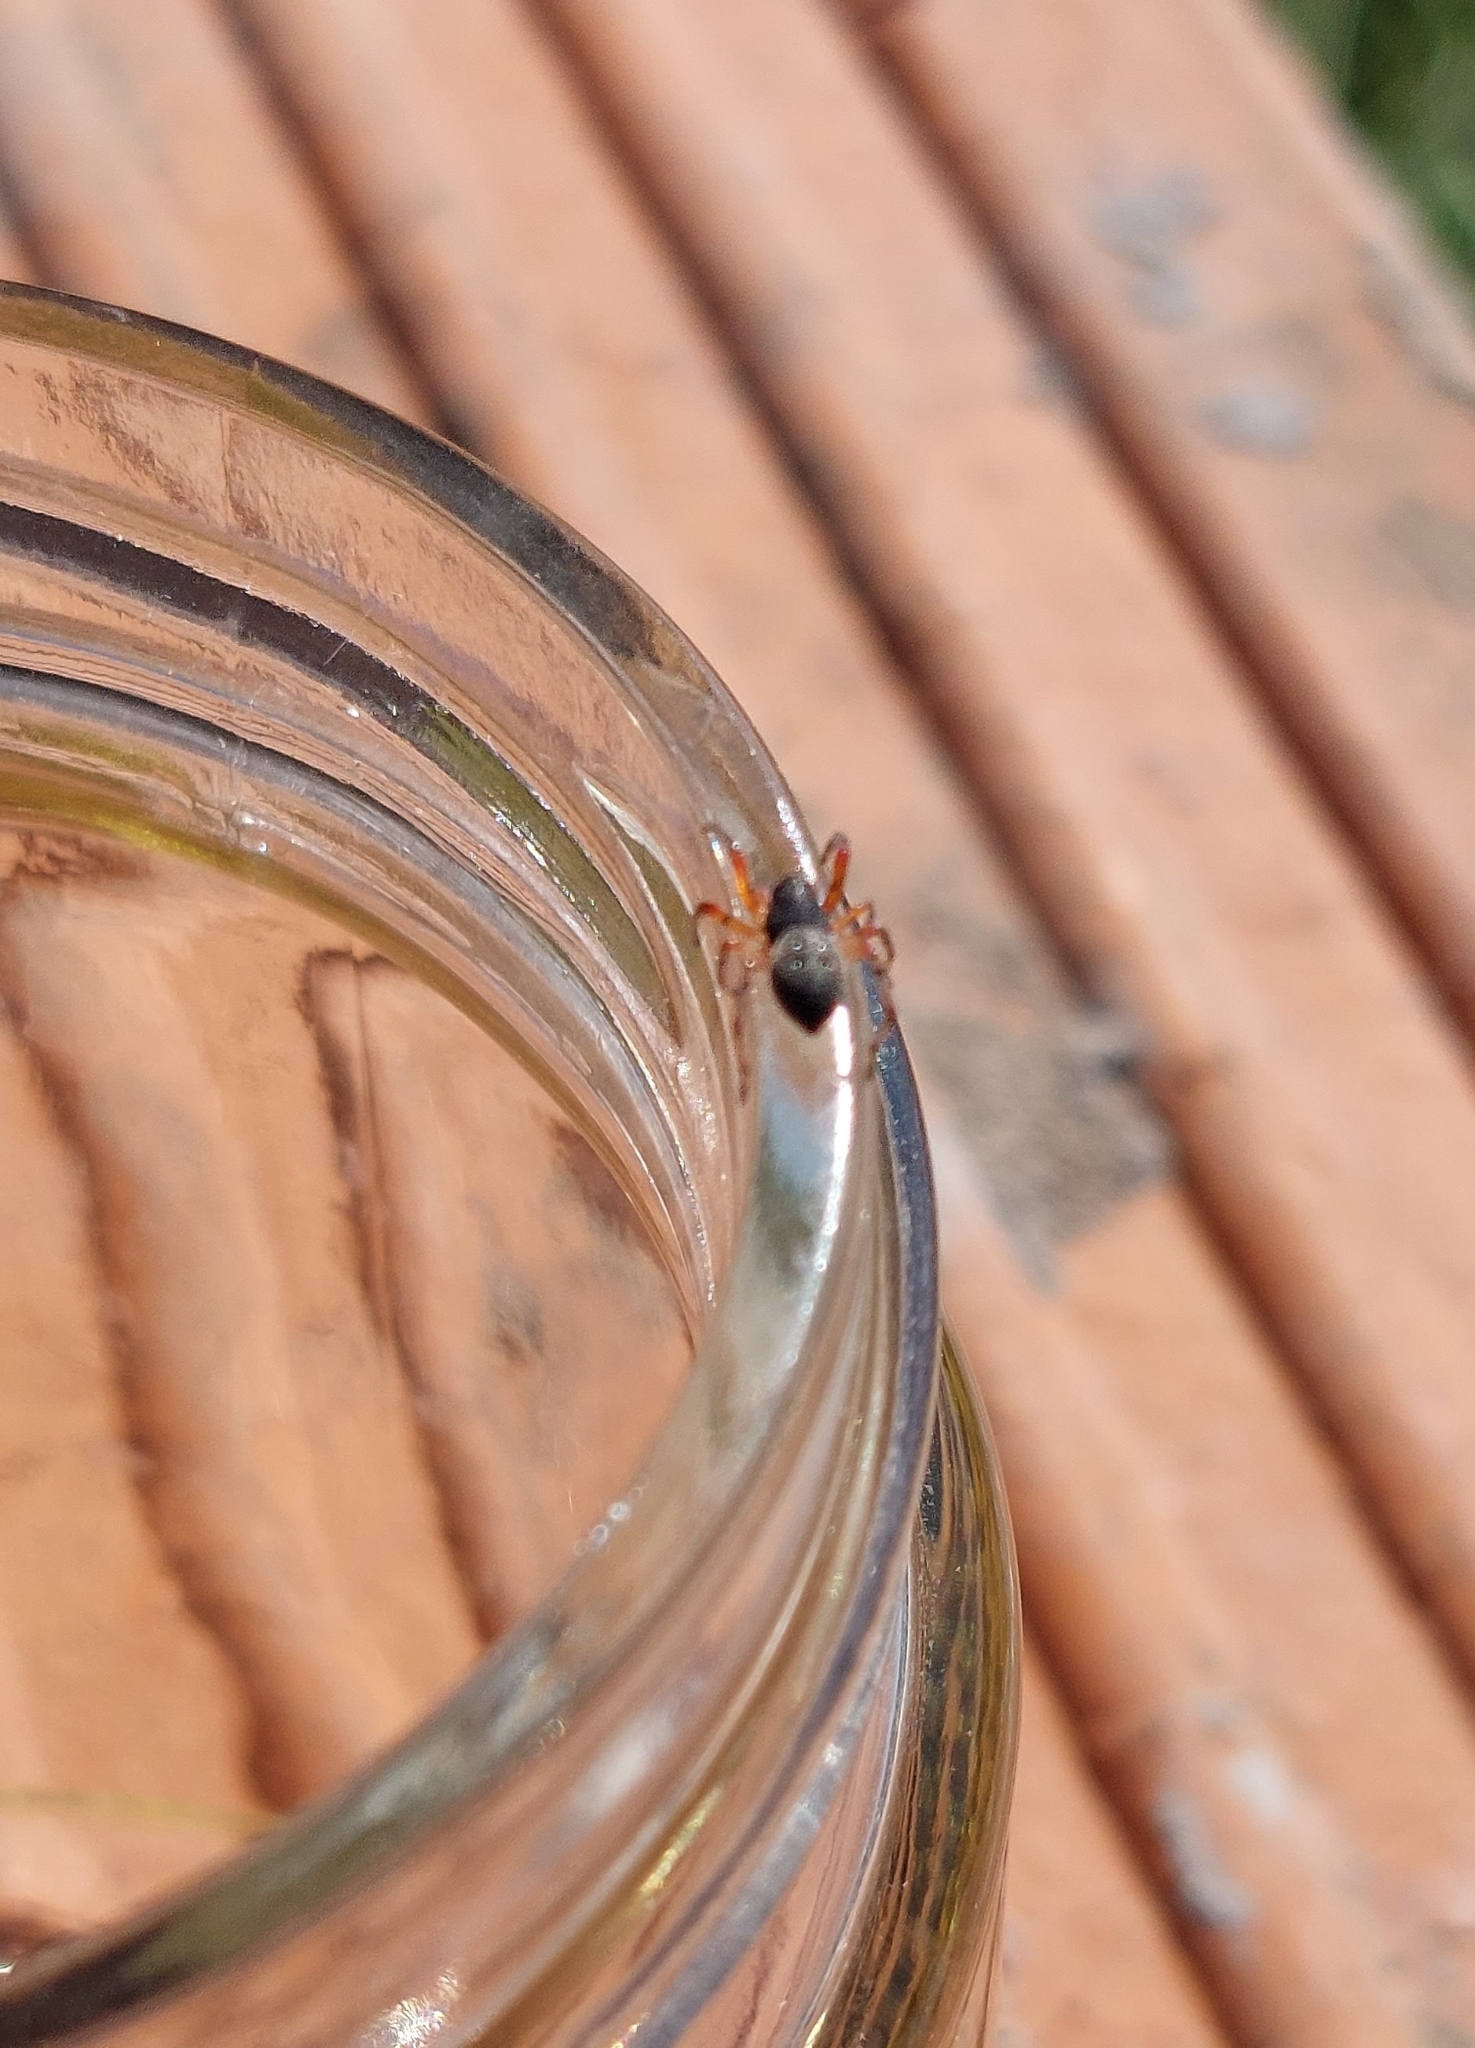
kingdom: Animalia
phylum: Arthropoda
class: Arachnida
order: Araneae
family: Trachelidae
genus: Trachelopachys
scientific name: Trachelopachys
